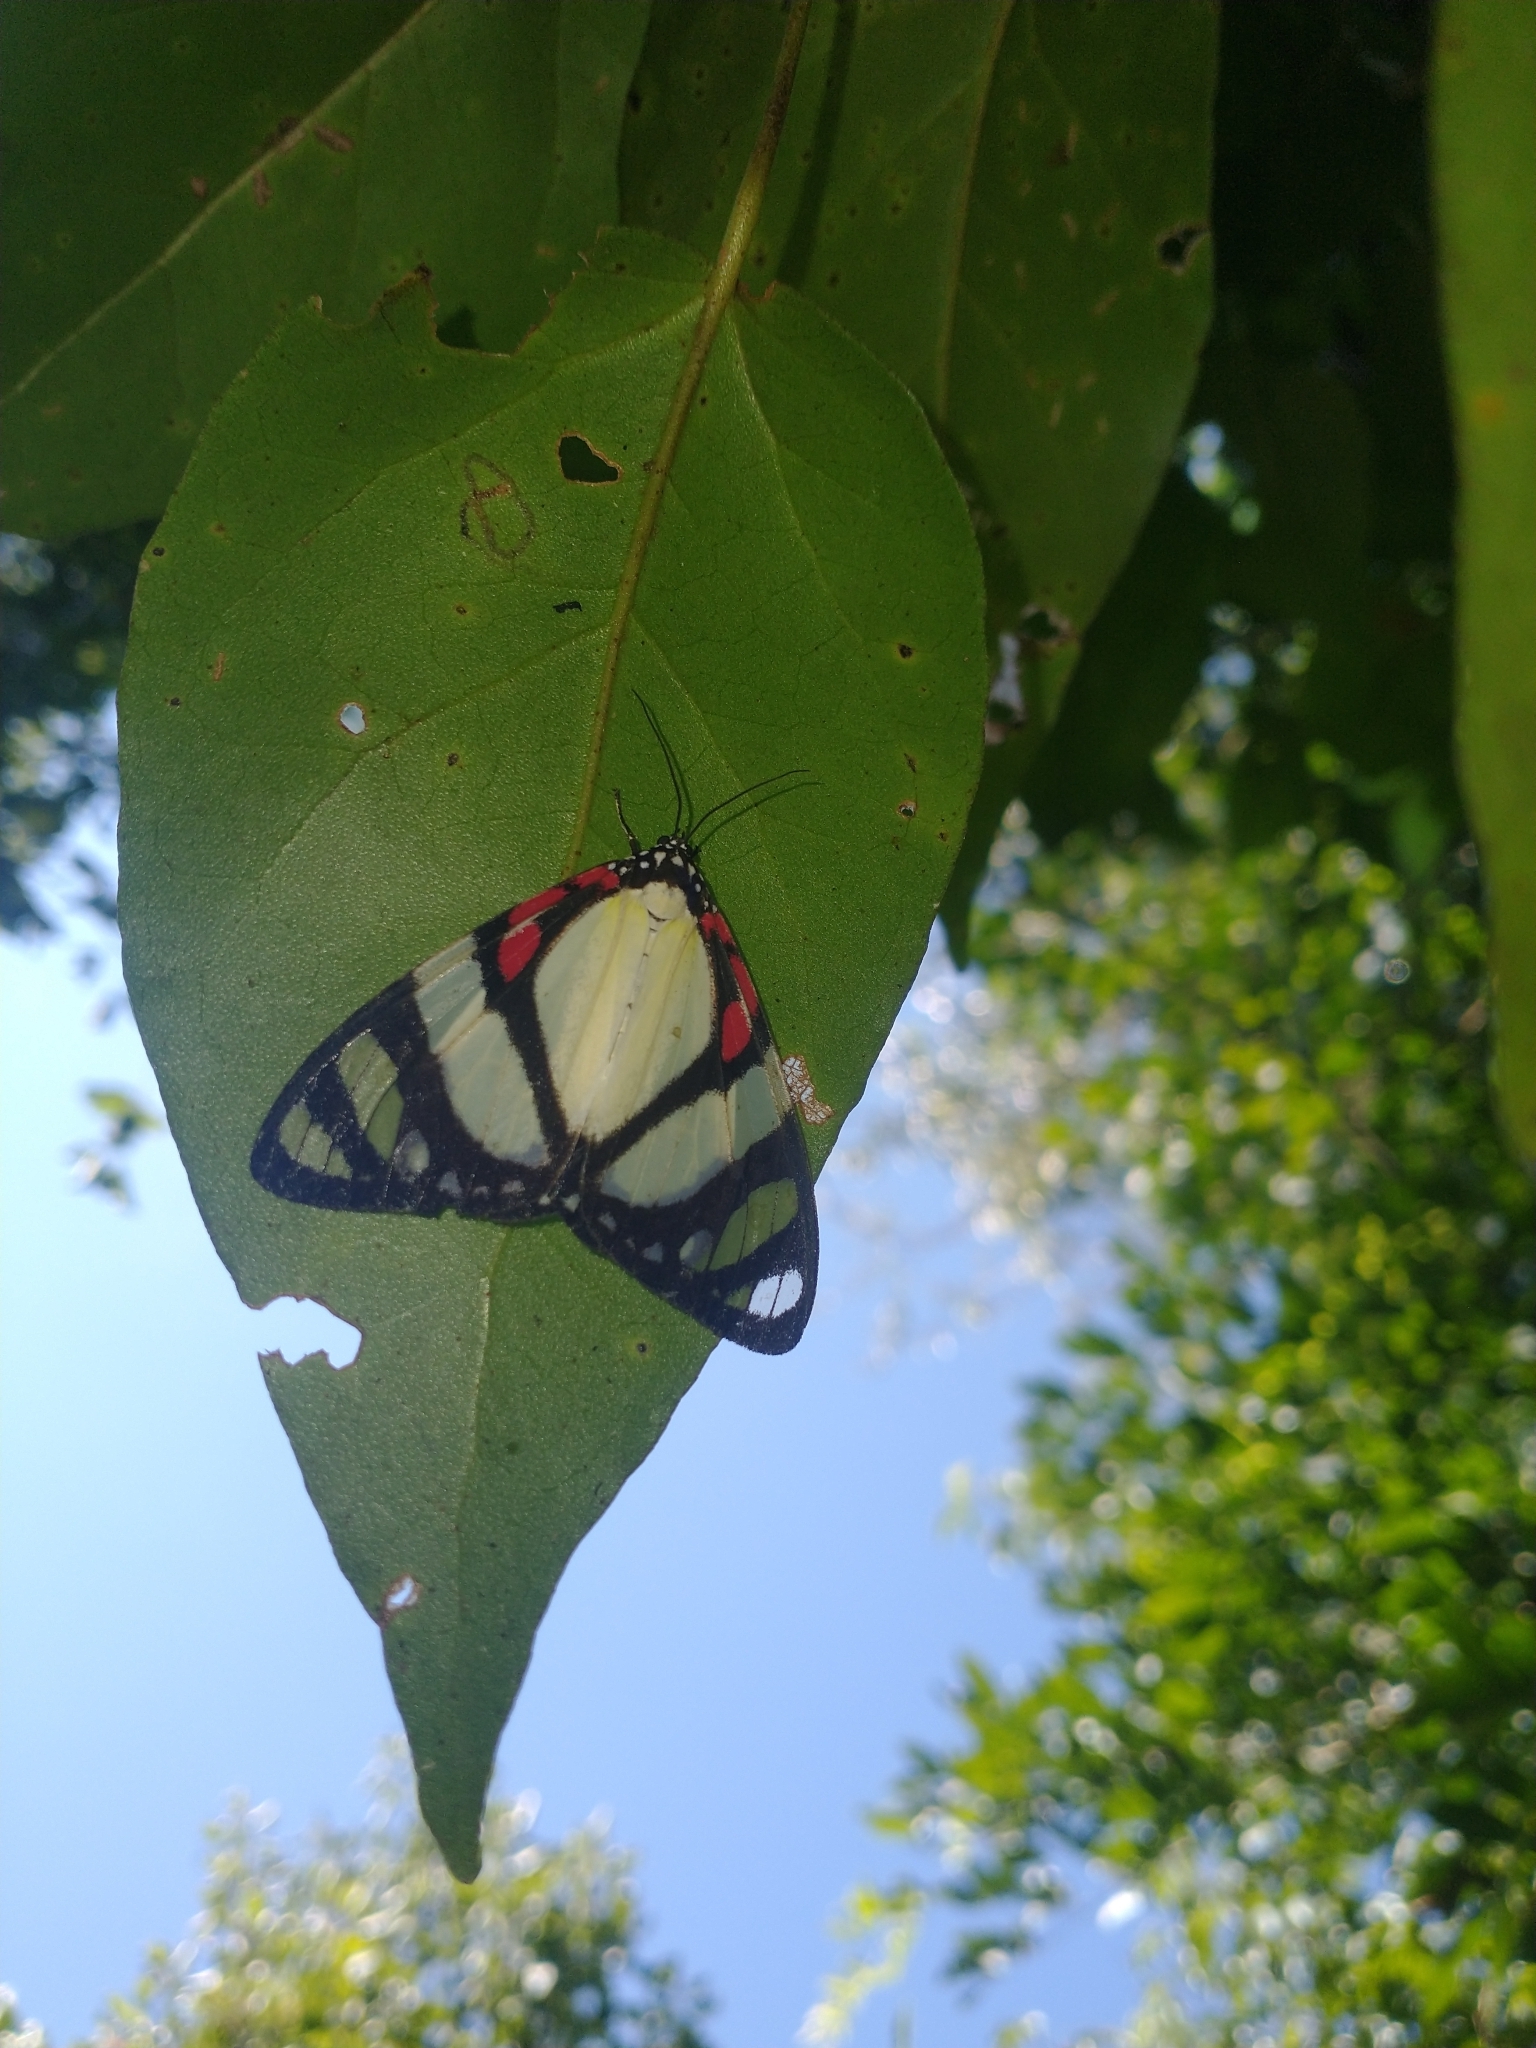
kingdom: Animalia
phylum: Arthropoda
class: Insecta
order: Lepidoptera
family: Erebidae
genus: Phaloe
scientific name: Phaloe
